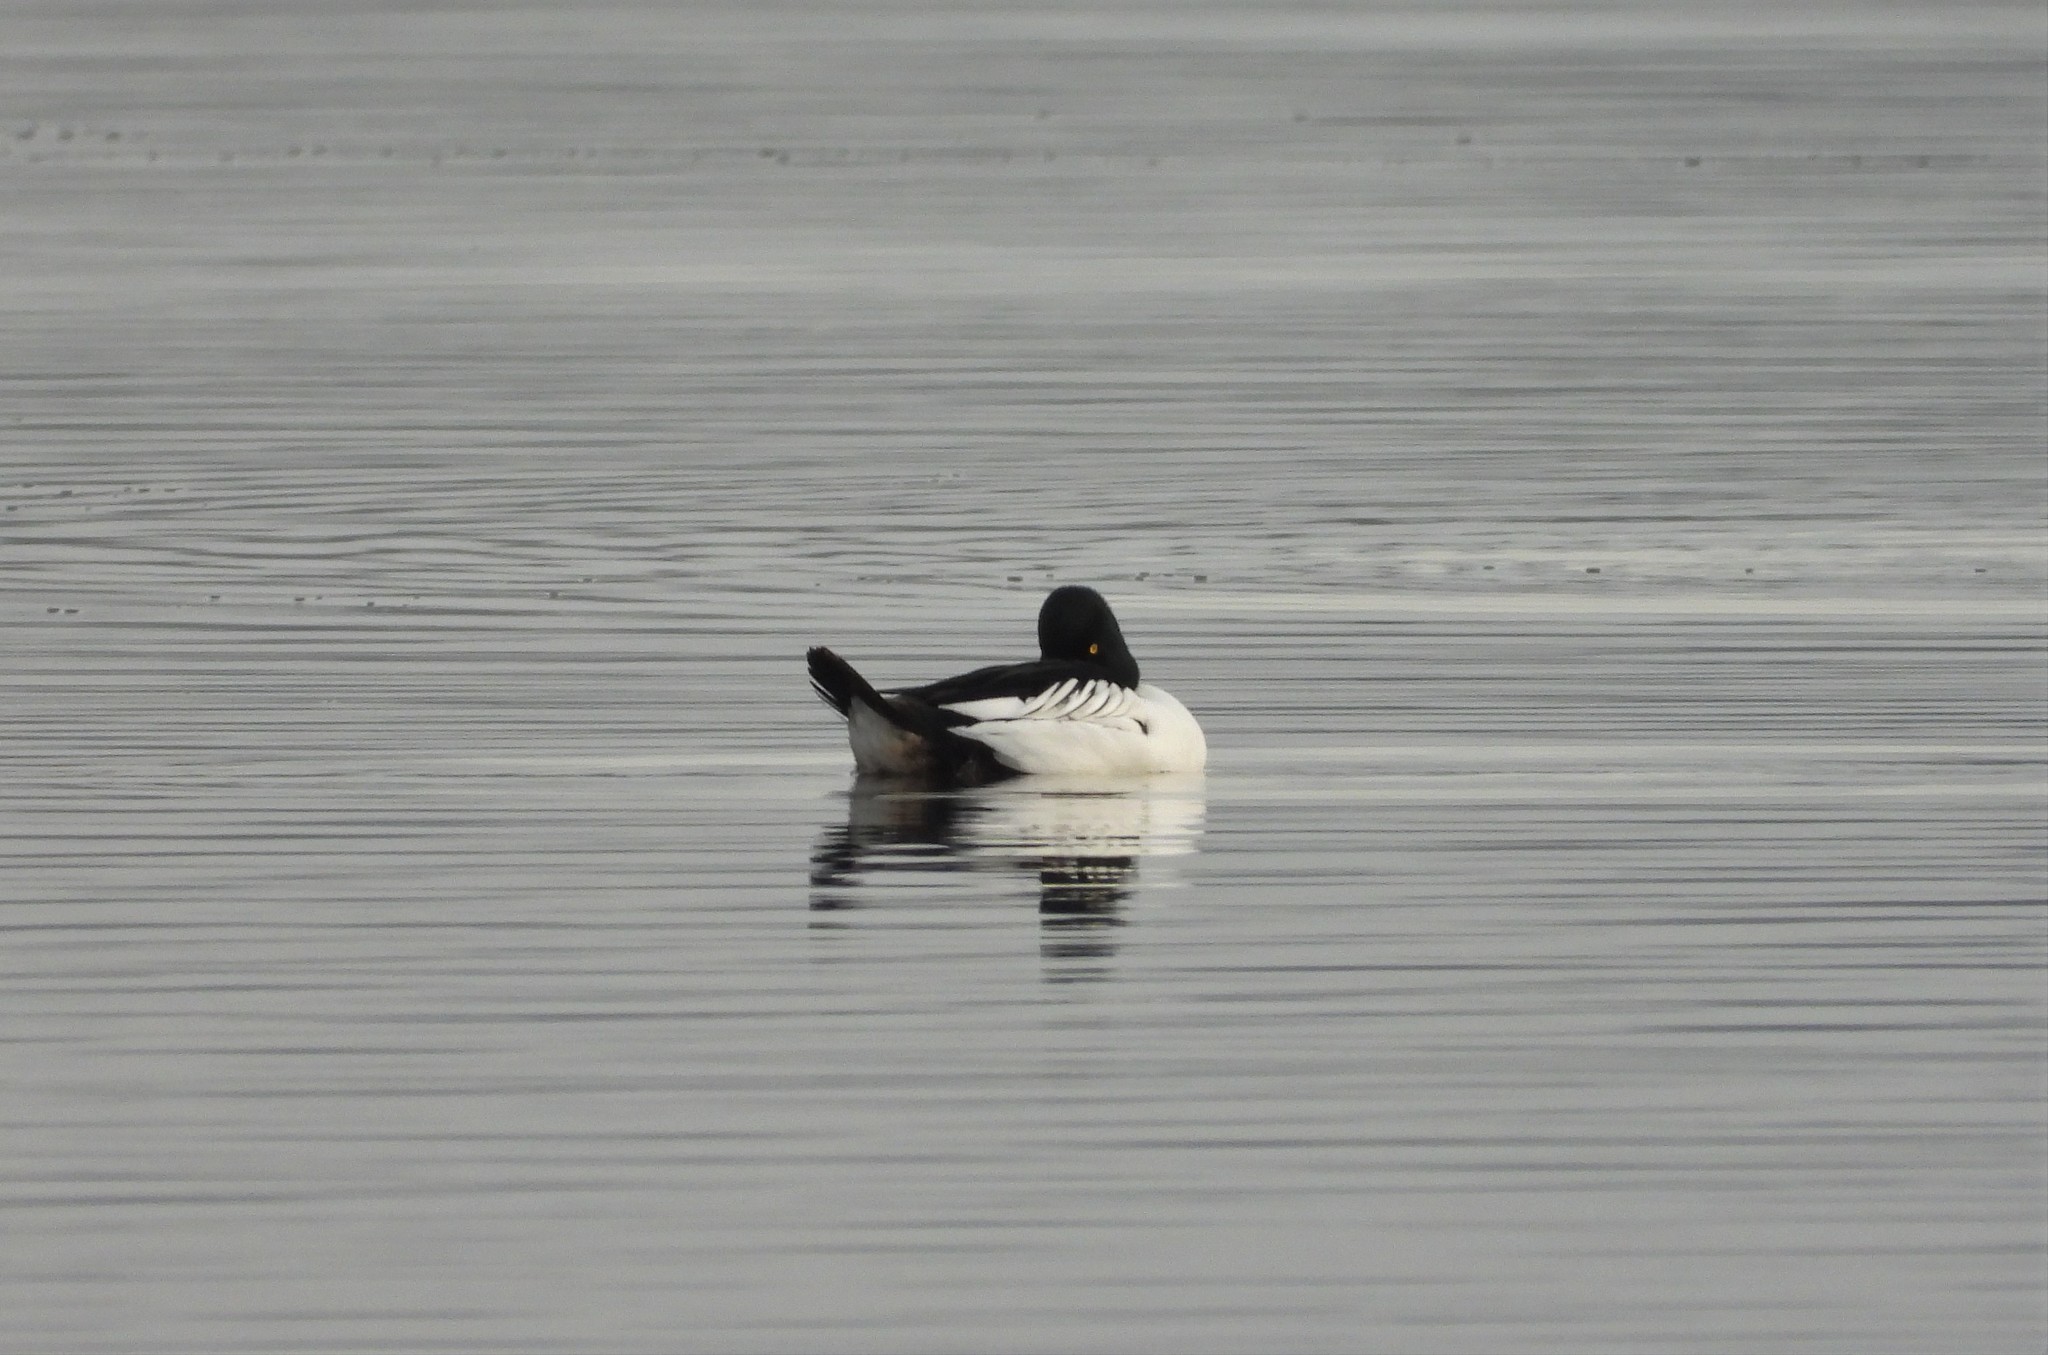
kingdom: Animalia
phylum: Chordata
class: Aves
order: Anseriformes
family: Anatidae
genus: Bucephala
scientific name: Bucephala clangula
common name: Common goldeneye
